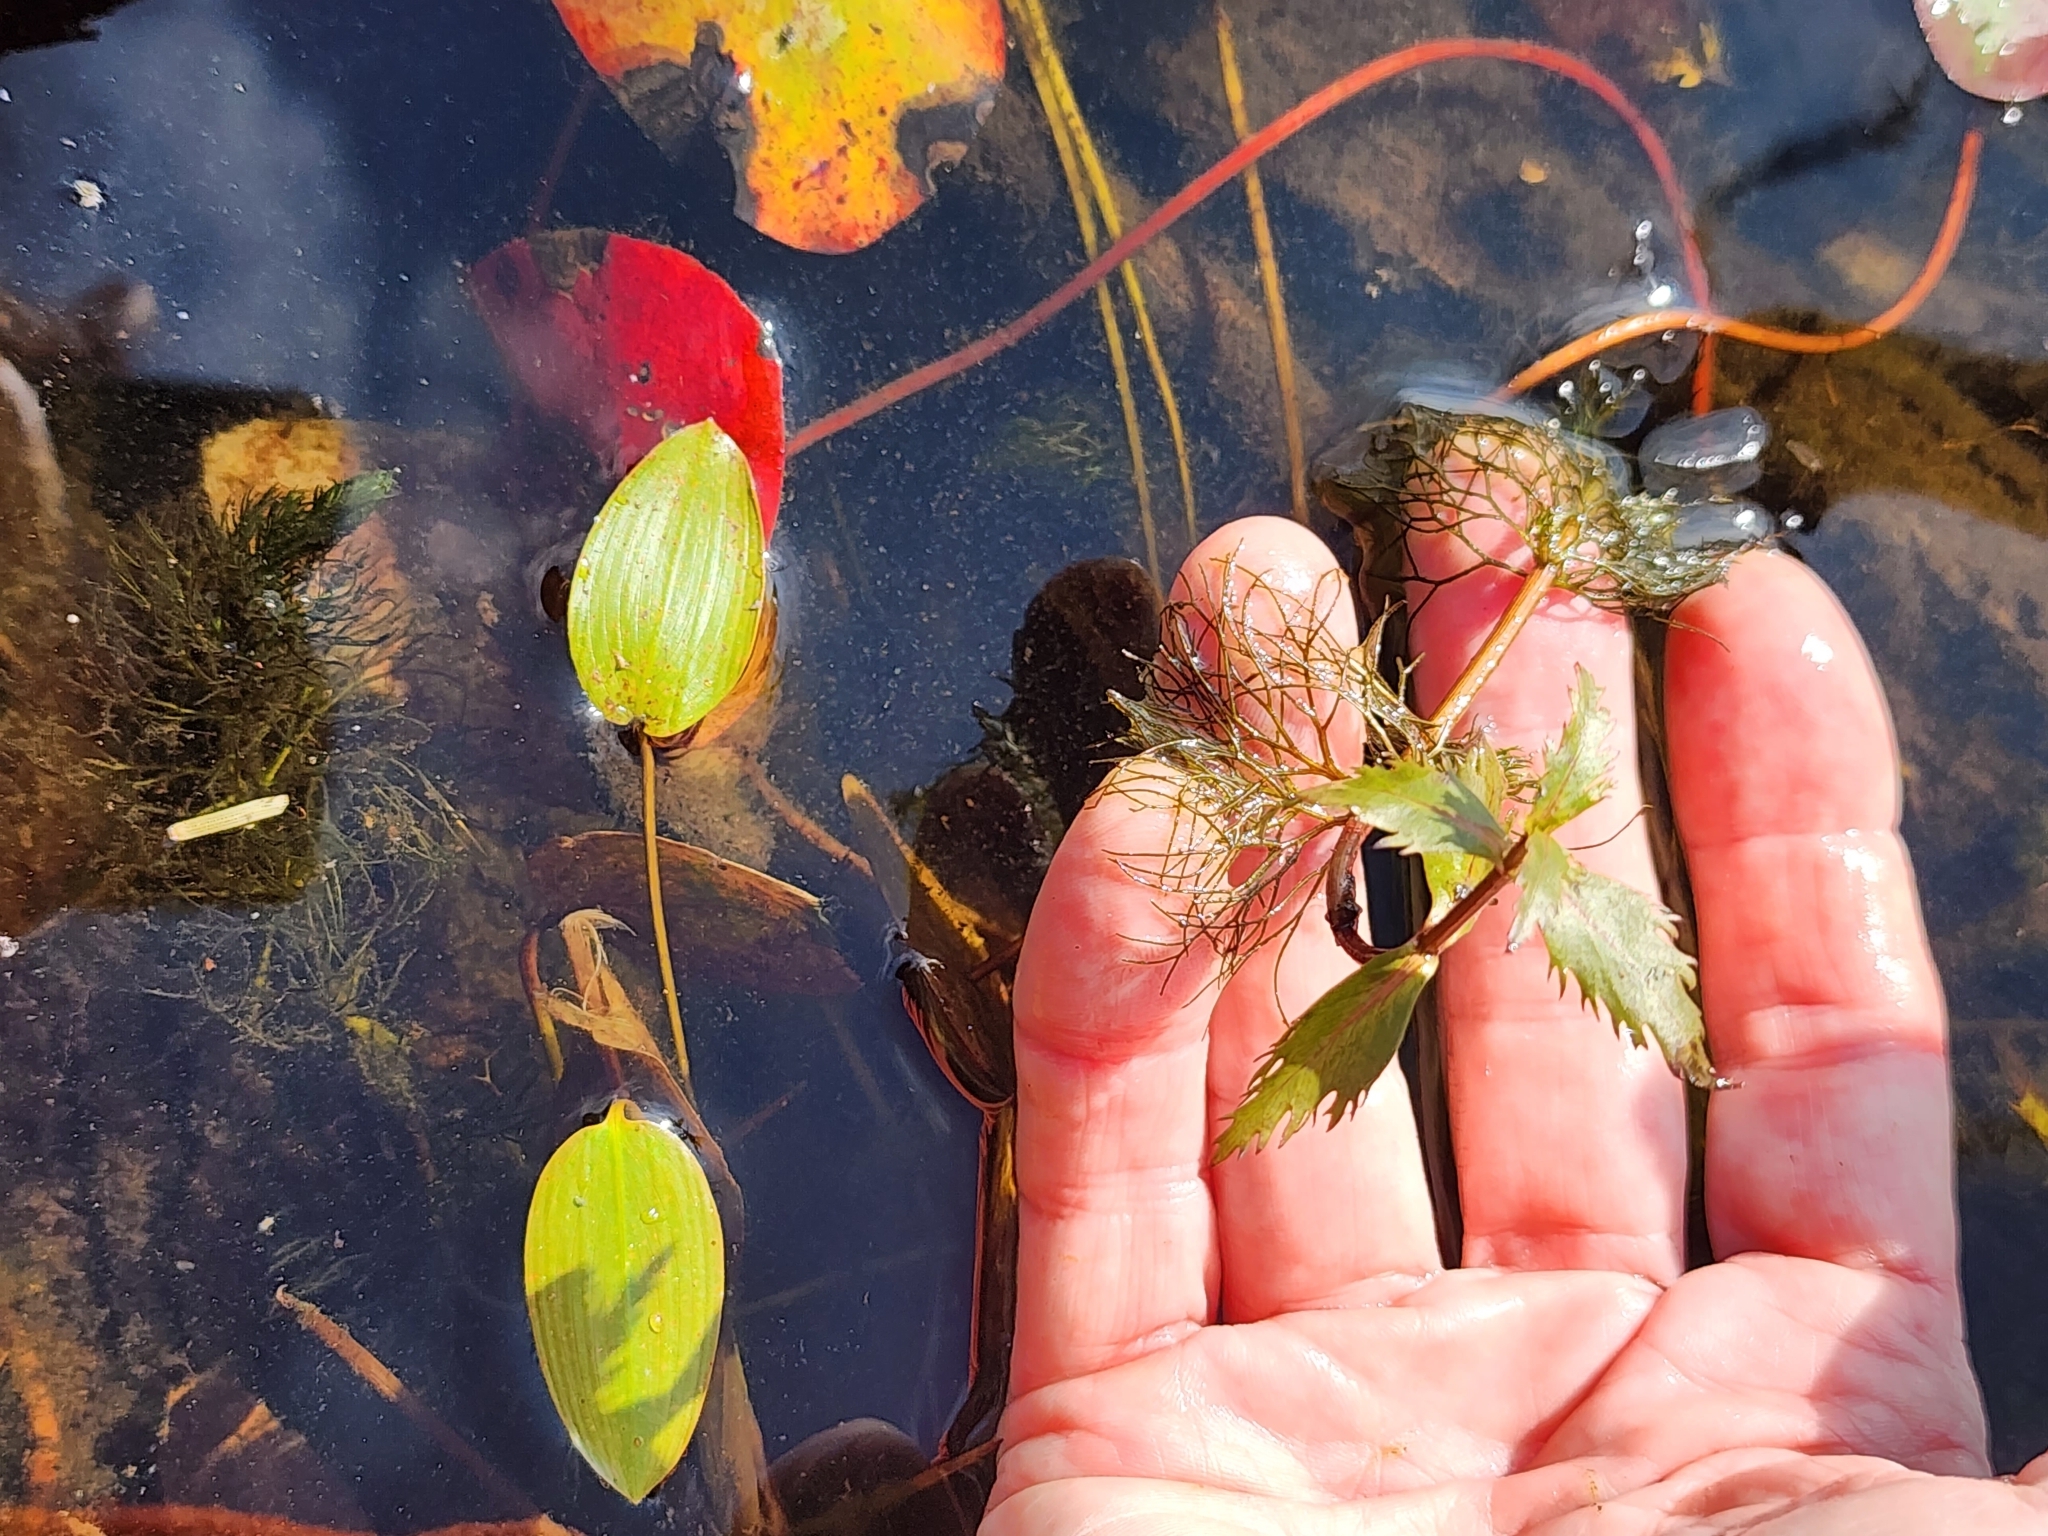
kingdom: Plantae
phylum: Tracheophyta
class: Magnoliopsida
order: Asterales
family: Asteraceae
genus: Bidens
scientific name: Bidens beckii
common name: Beck's beggarticks
